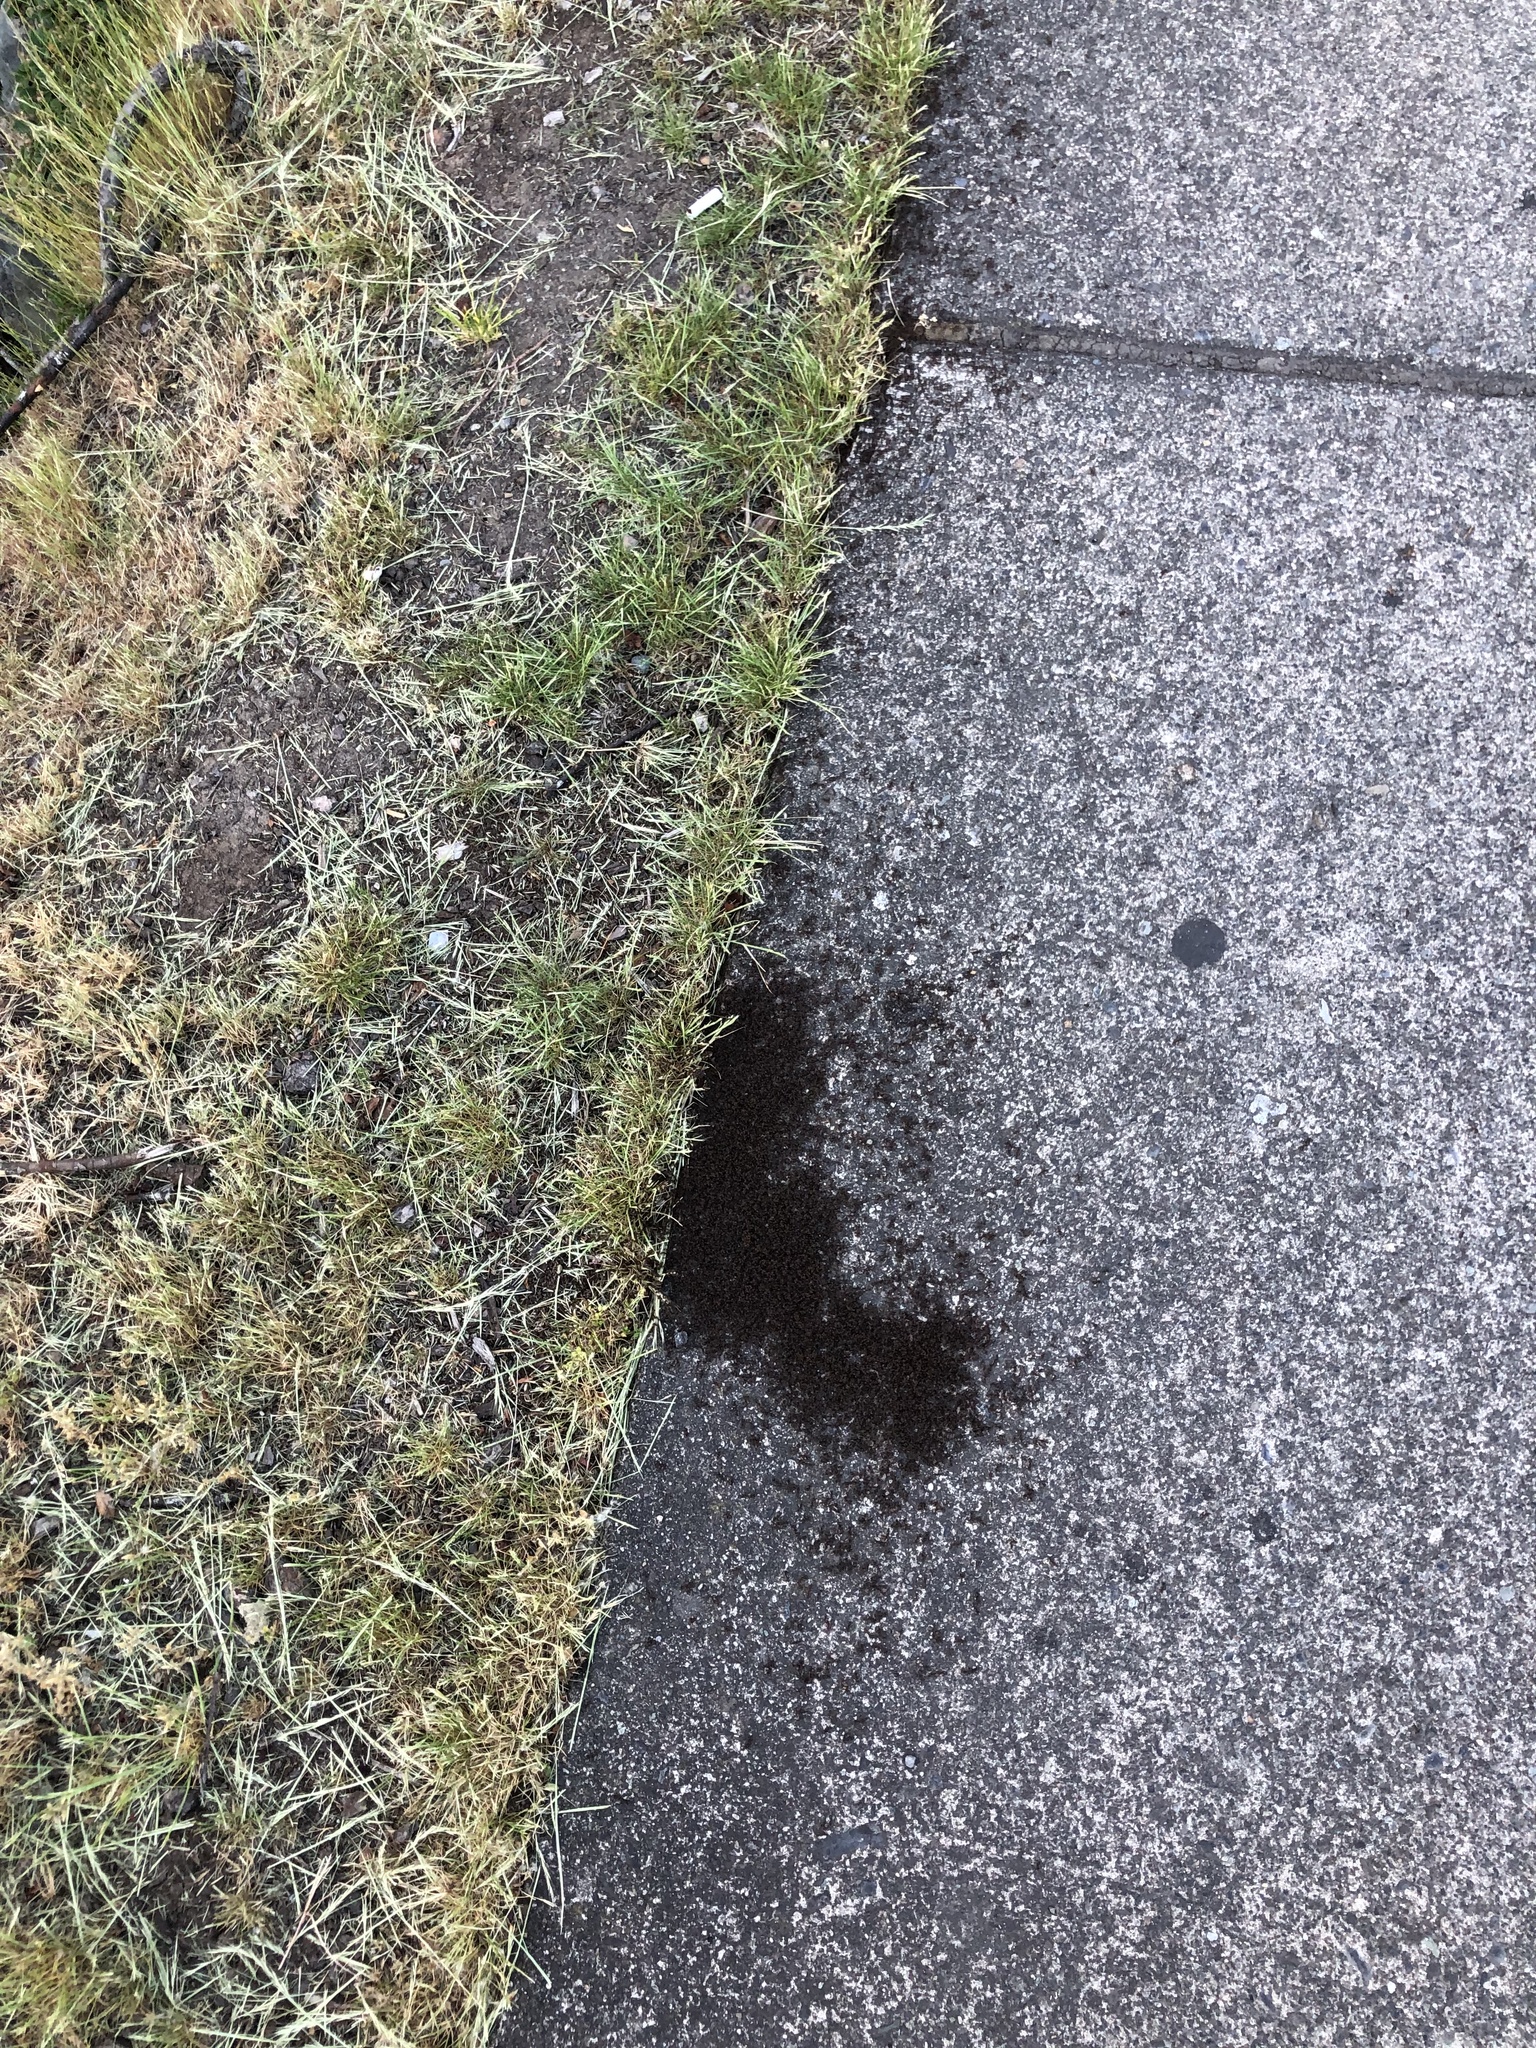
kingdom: Animalia
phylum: Arthropoda
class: Insecta
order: Hymenoptera
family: Formicidae
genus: Tetramorium
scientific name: Tetramorium immigrans
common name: Pavement ant
